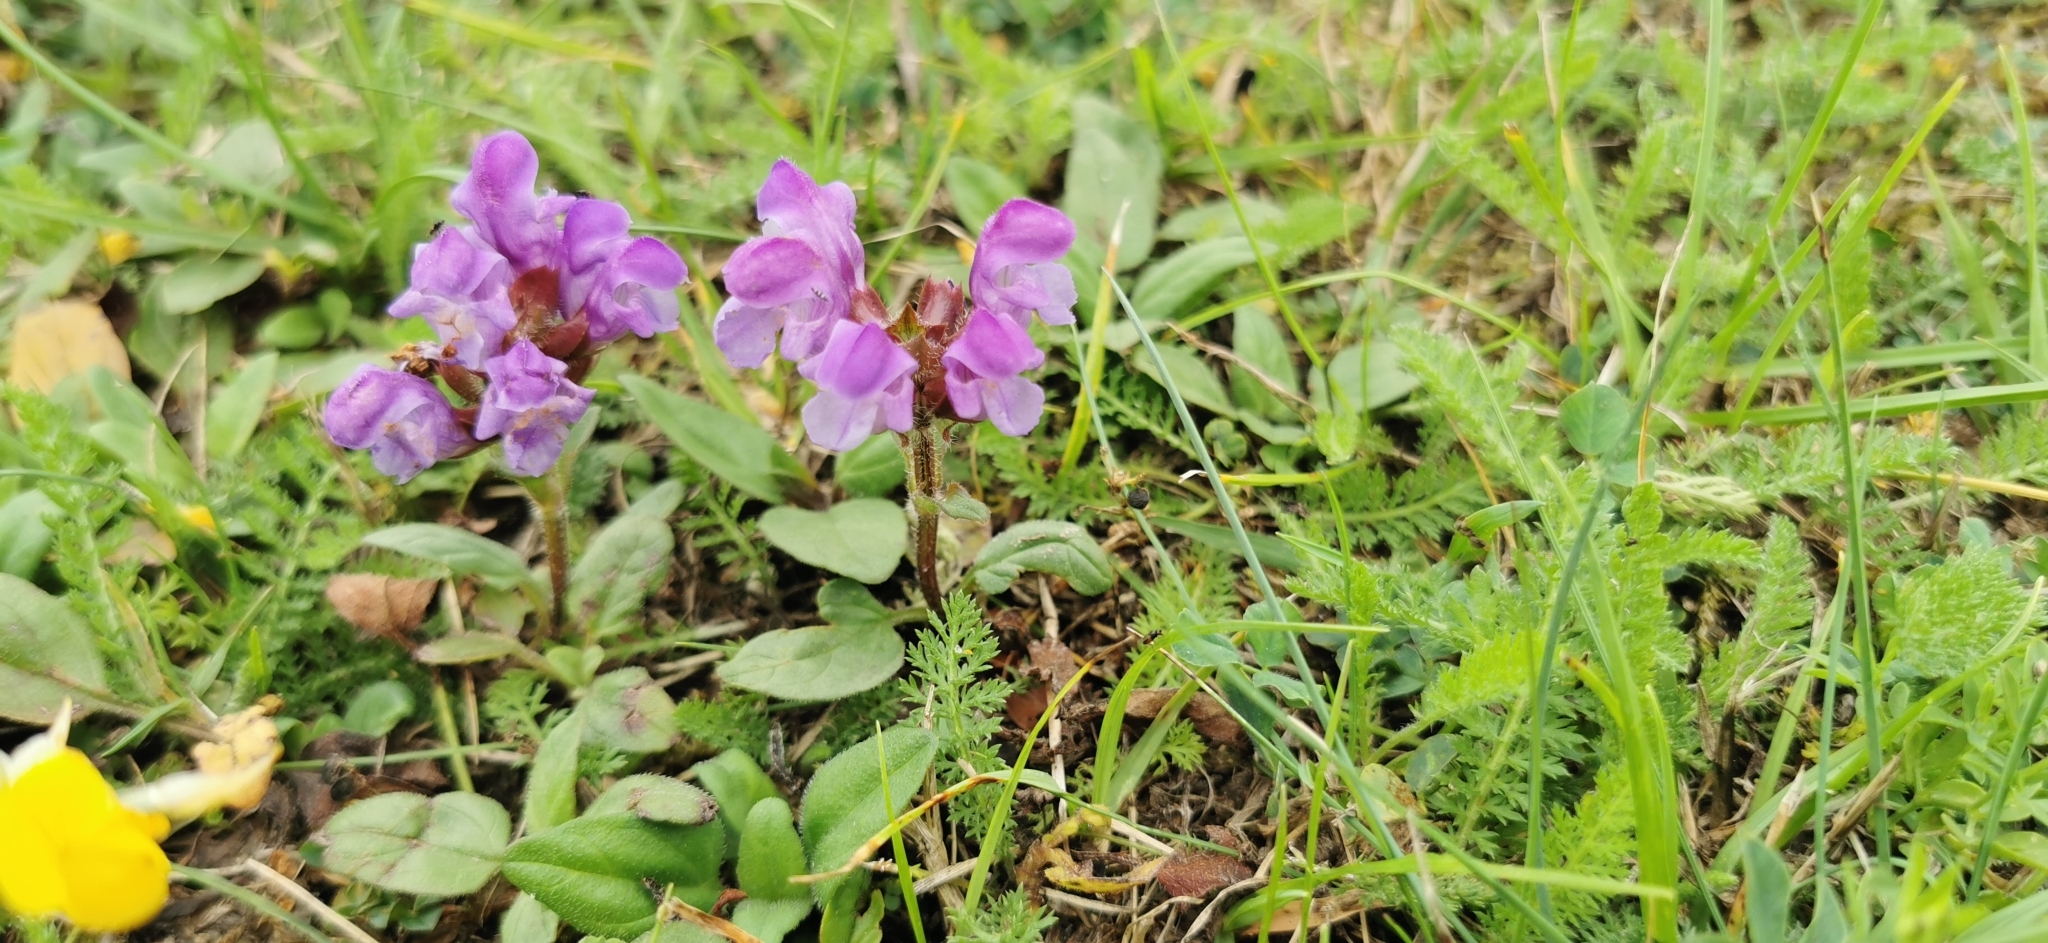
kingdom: Plantae
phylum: Tracheophyta
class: Magnoliopsida
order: Lamiales
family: Lamiaceae
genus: Prunella
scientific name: Prunella grandiflora
